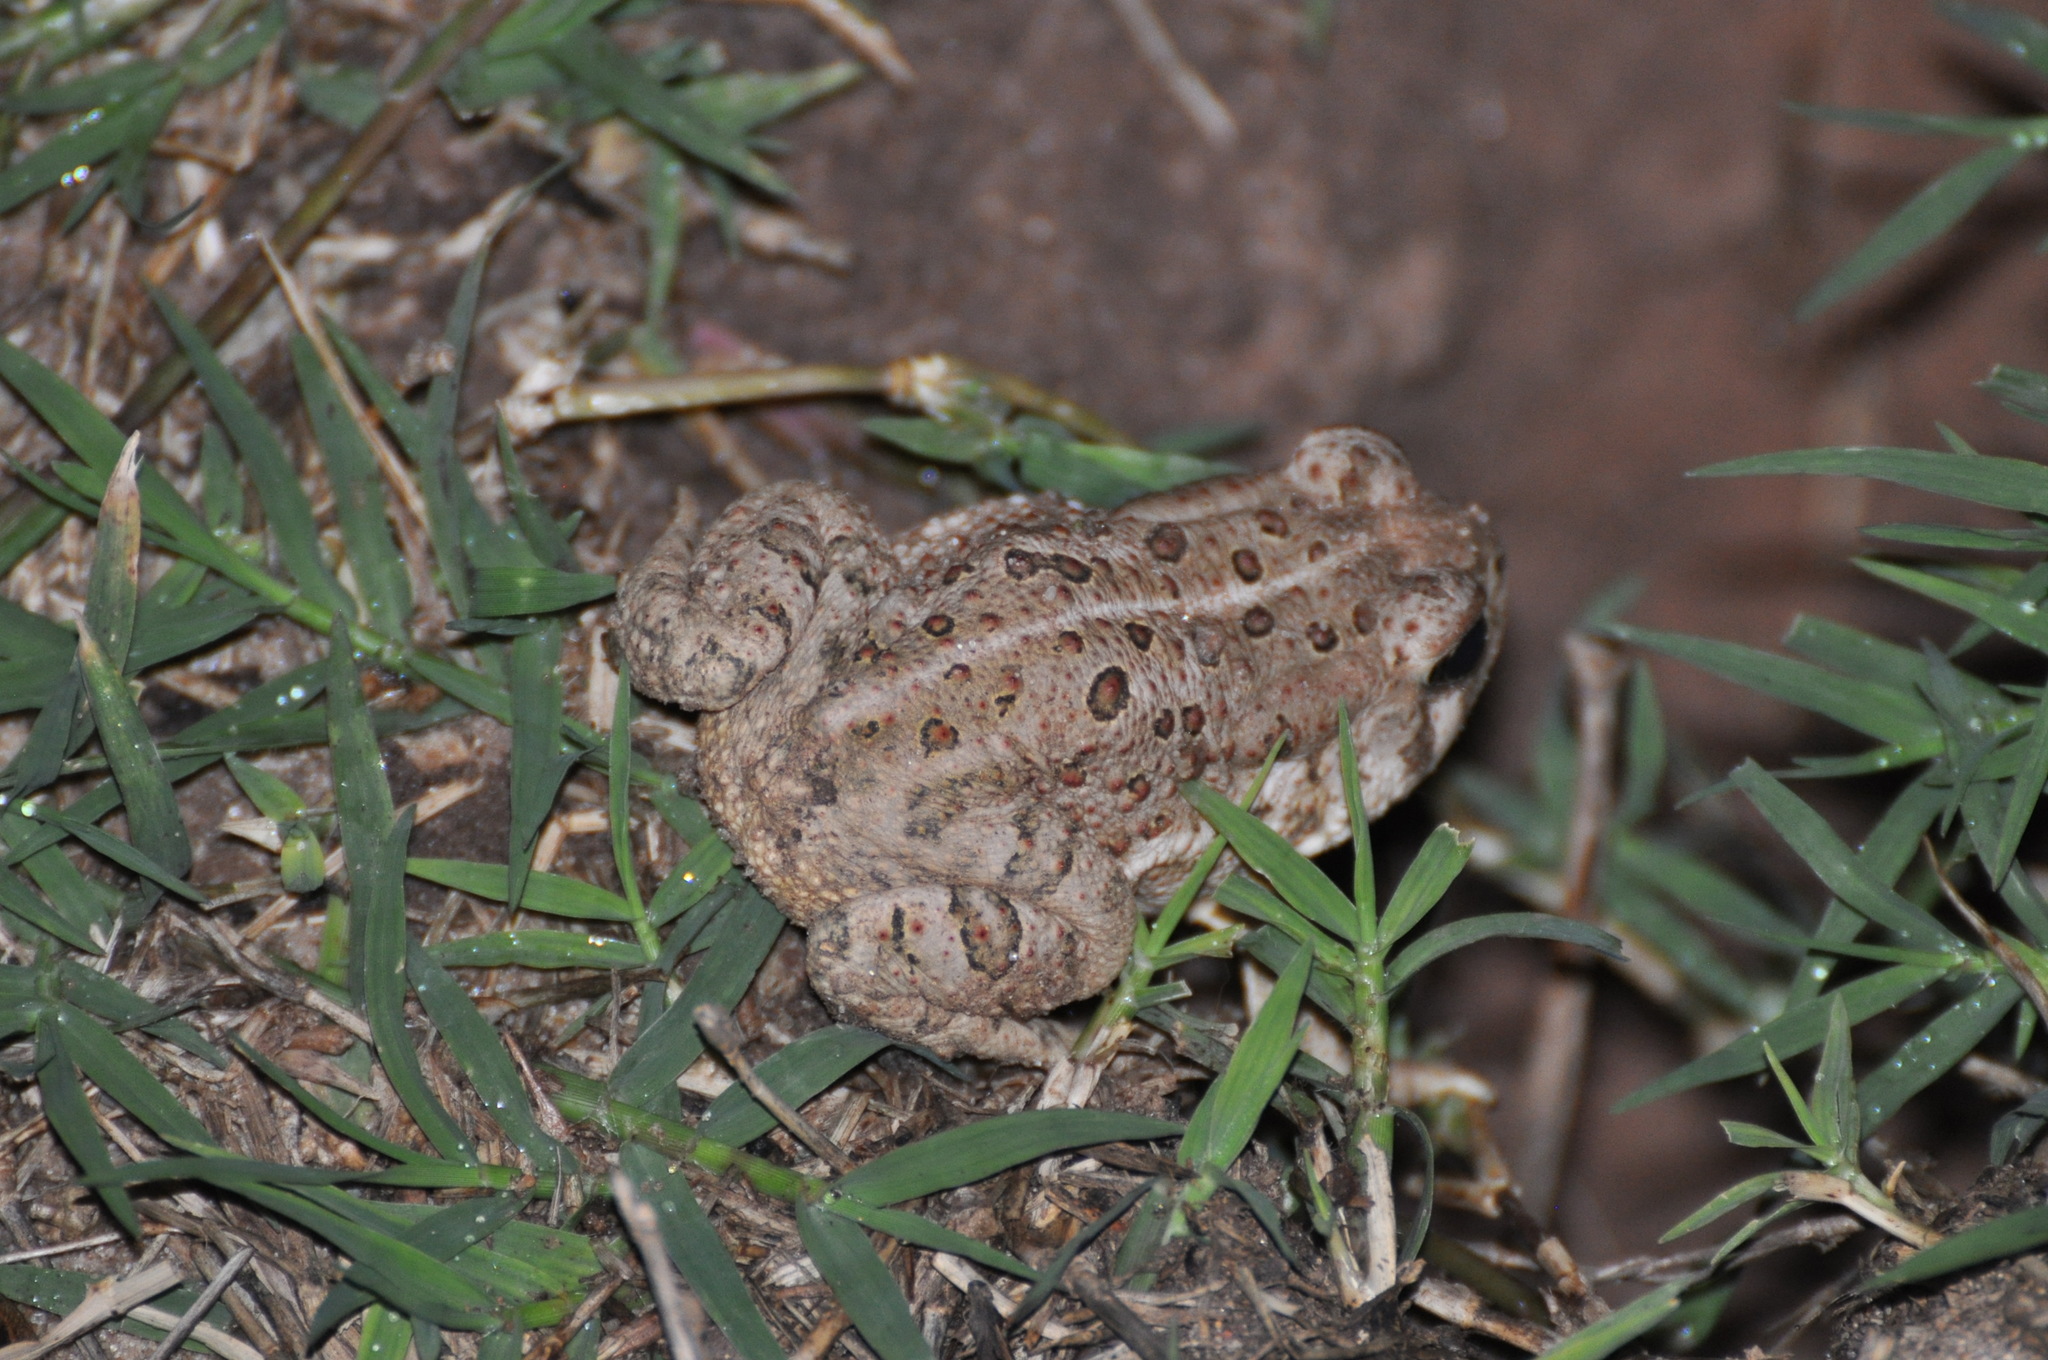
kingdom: Animalia
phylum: Chordata
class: Amphibia
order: Anura
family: Bufonidae
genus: Anaxyrus
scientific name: Anaxyrus woodhousii
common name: Woodhouse's toad
